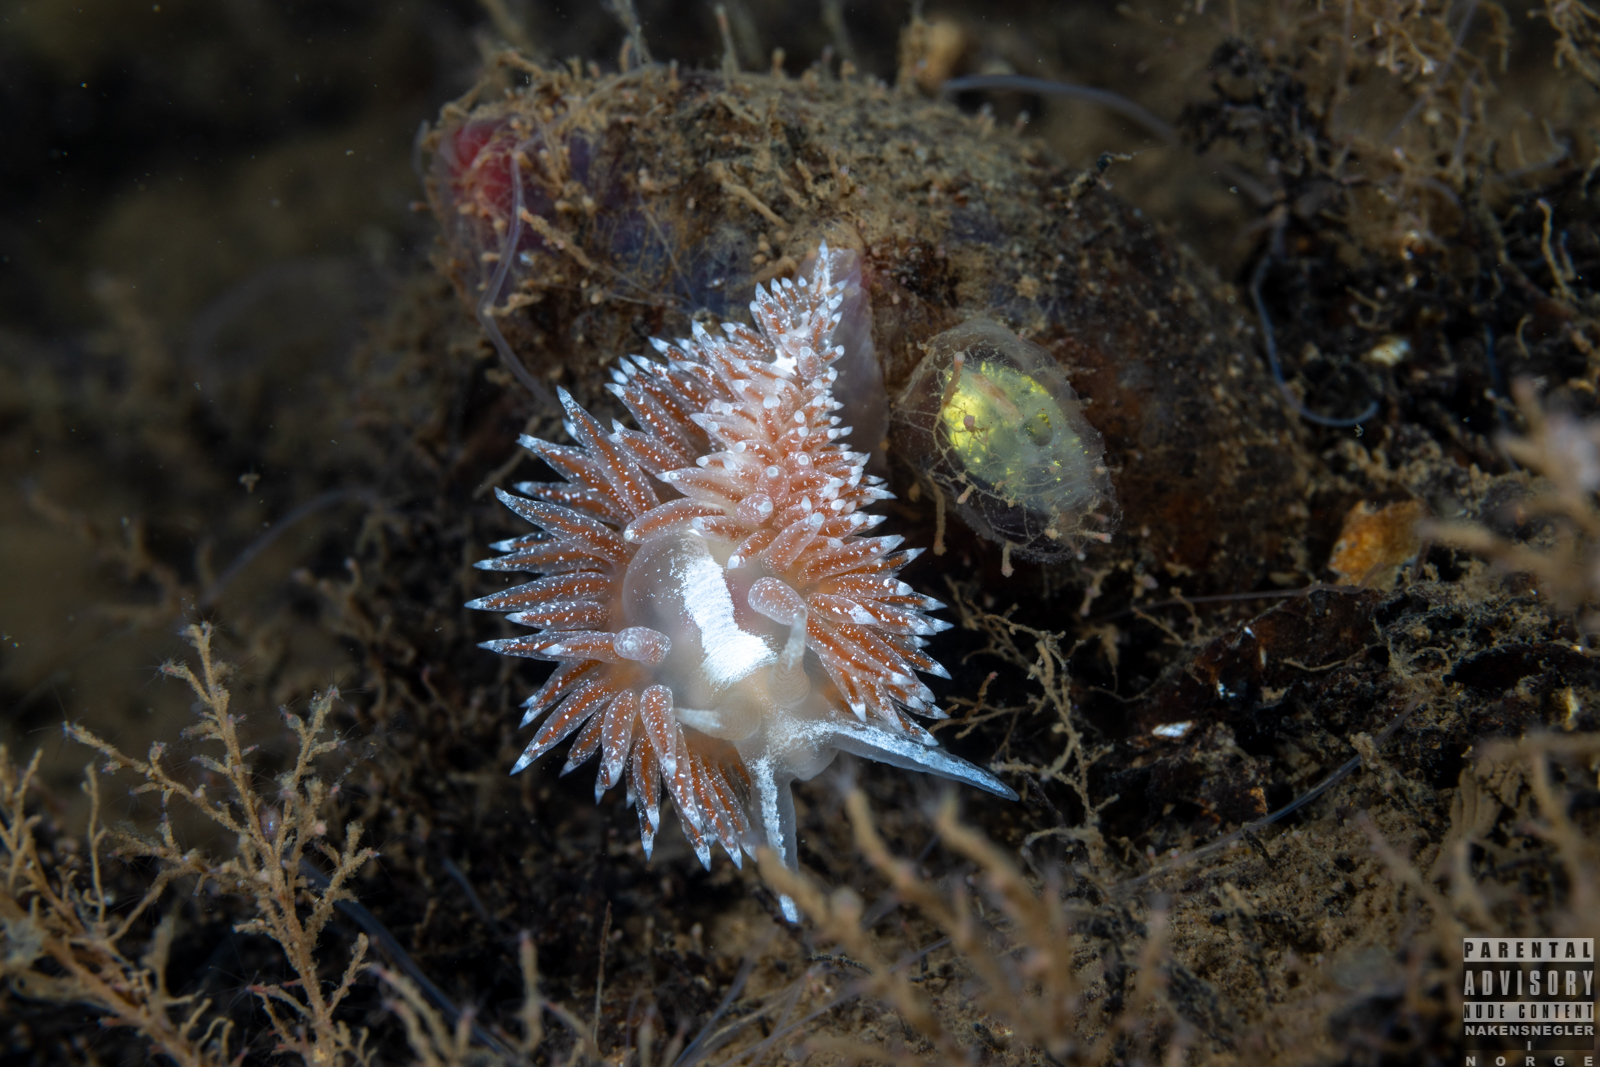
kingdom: Animalia
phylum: Mollusca
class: Gastropoda
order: Nudibranchia
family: Coryphellidae
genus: Coryphella
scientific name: Coryphella monicae
